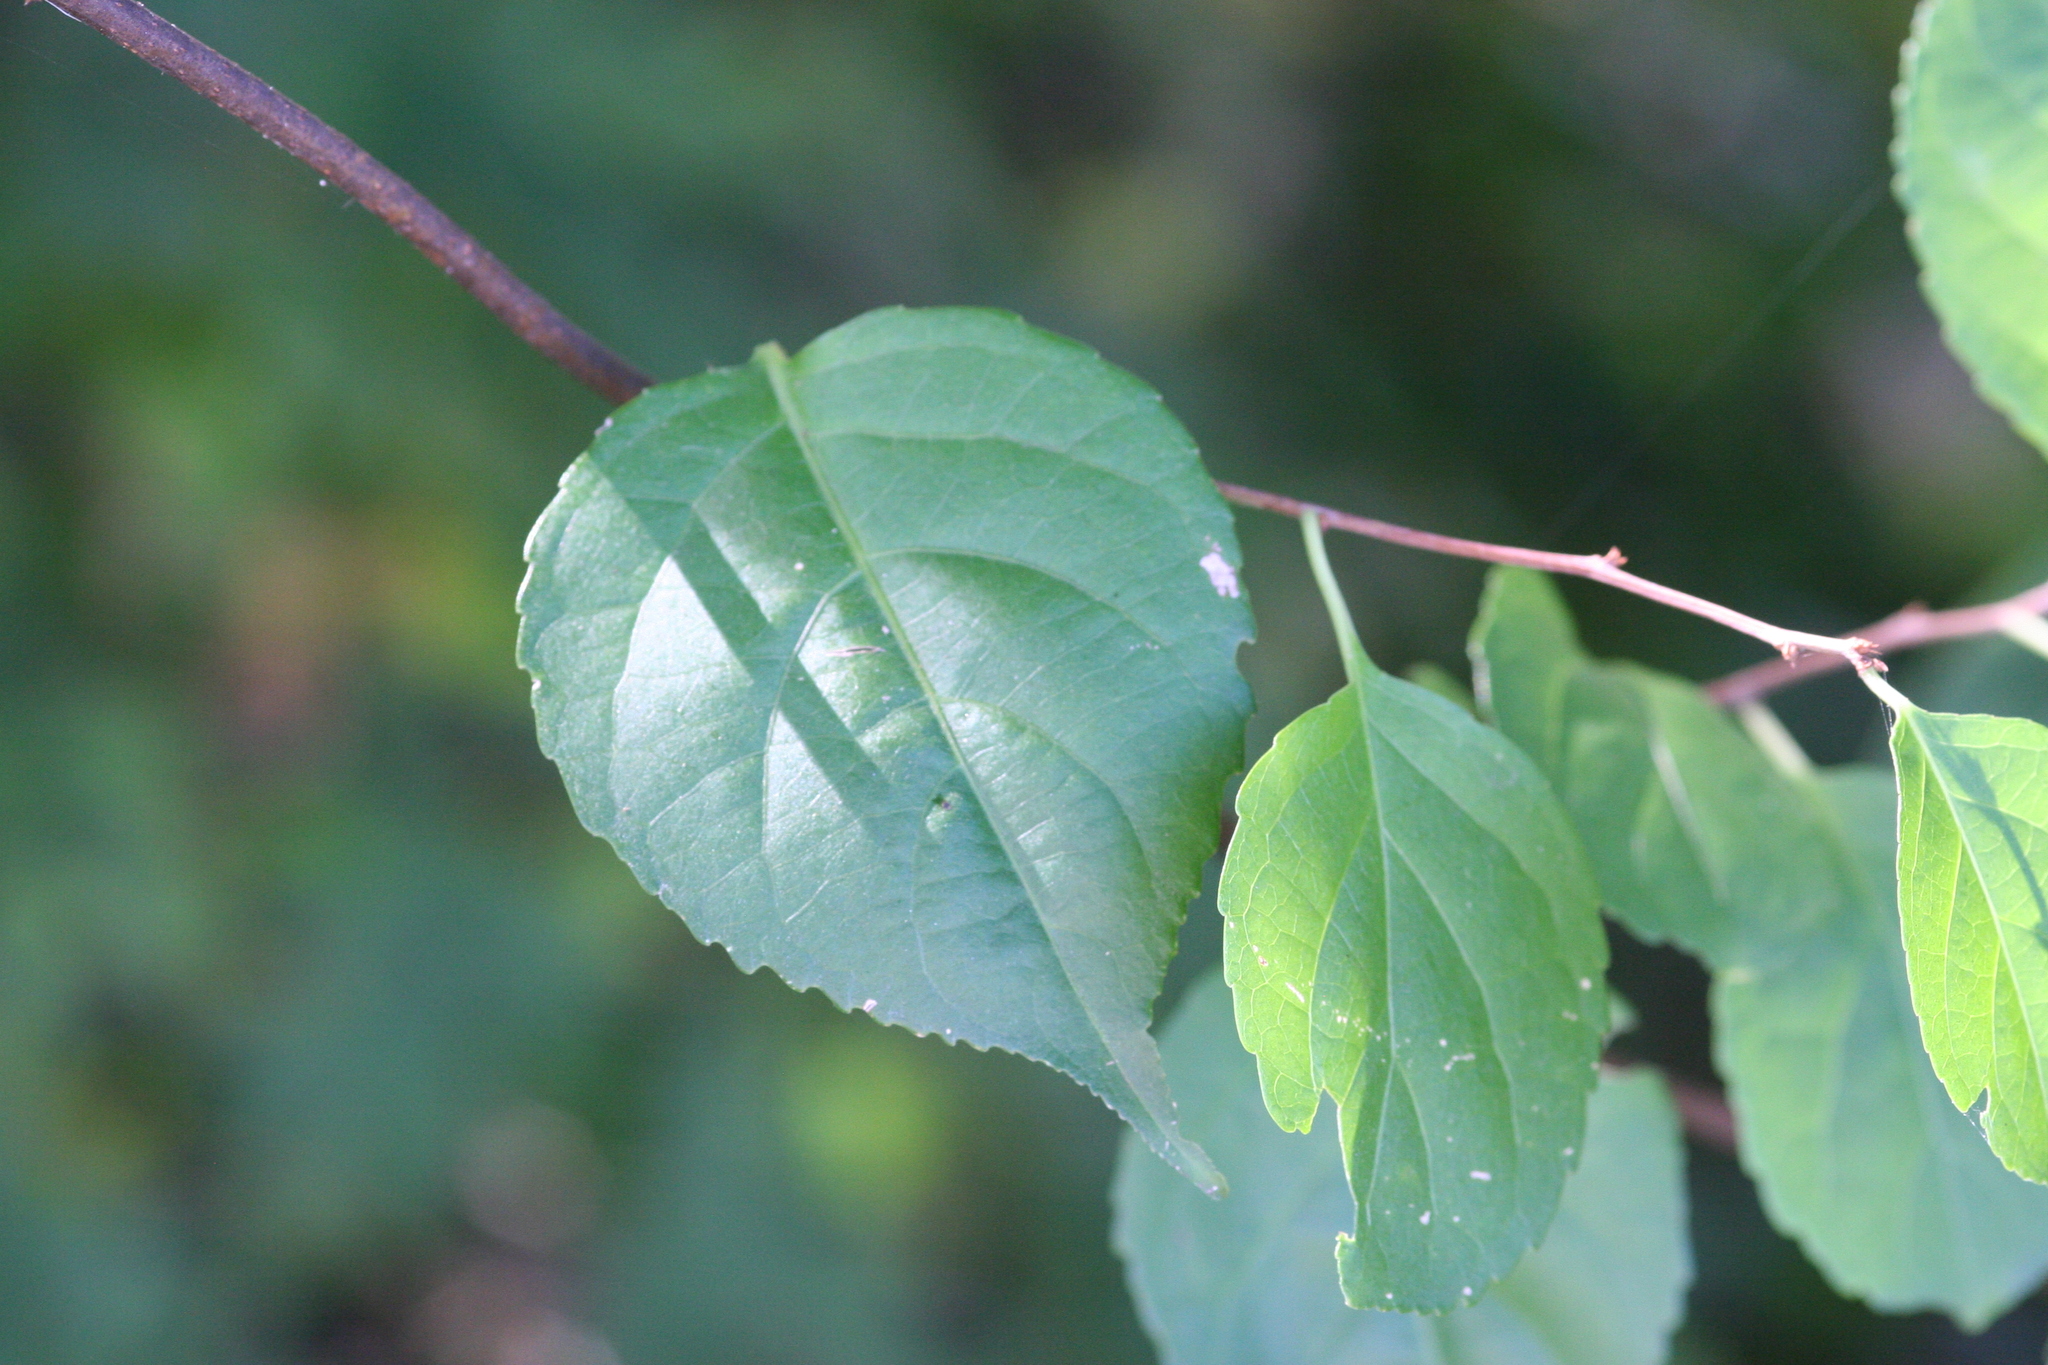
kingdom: Plantae
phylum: Tracheophyta
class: Magnoliopsida
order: Celastrales
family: Celastraceae
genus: Celastrus
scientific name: Celastrus orbiculatus
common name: Oriental bittersweet
